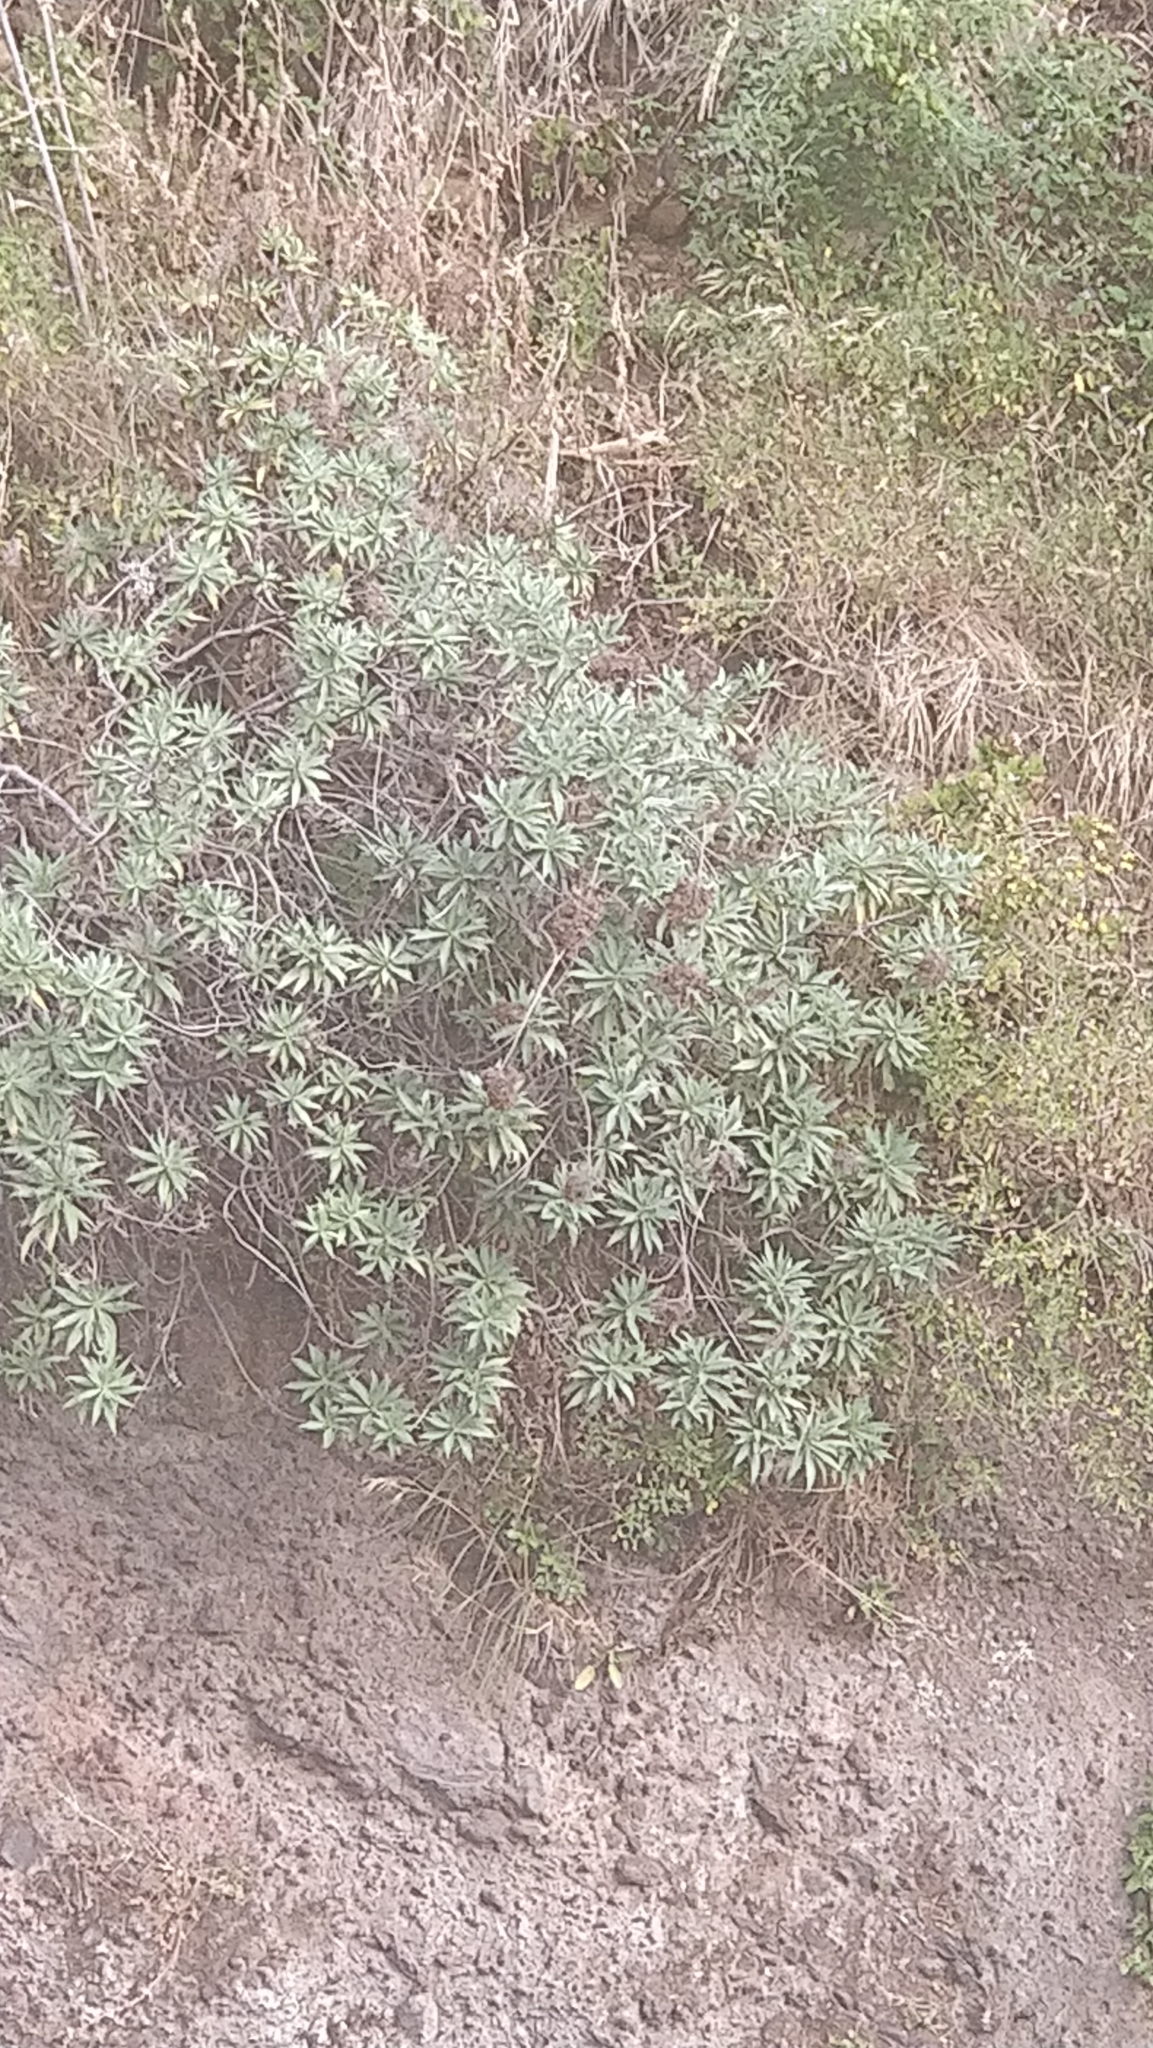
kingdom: Plantae
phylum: Tracheophyta
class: Magnoliopsida
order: Boraginales
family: Boraginaceae
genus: Echium
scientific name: Echium nervosum
